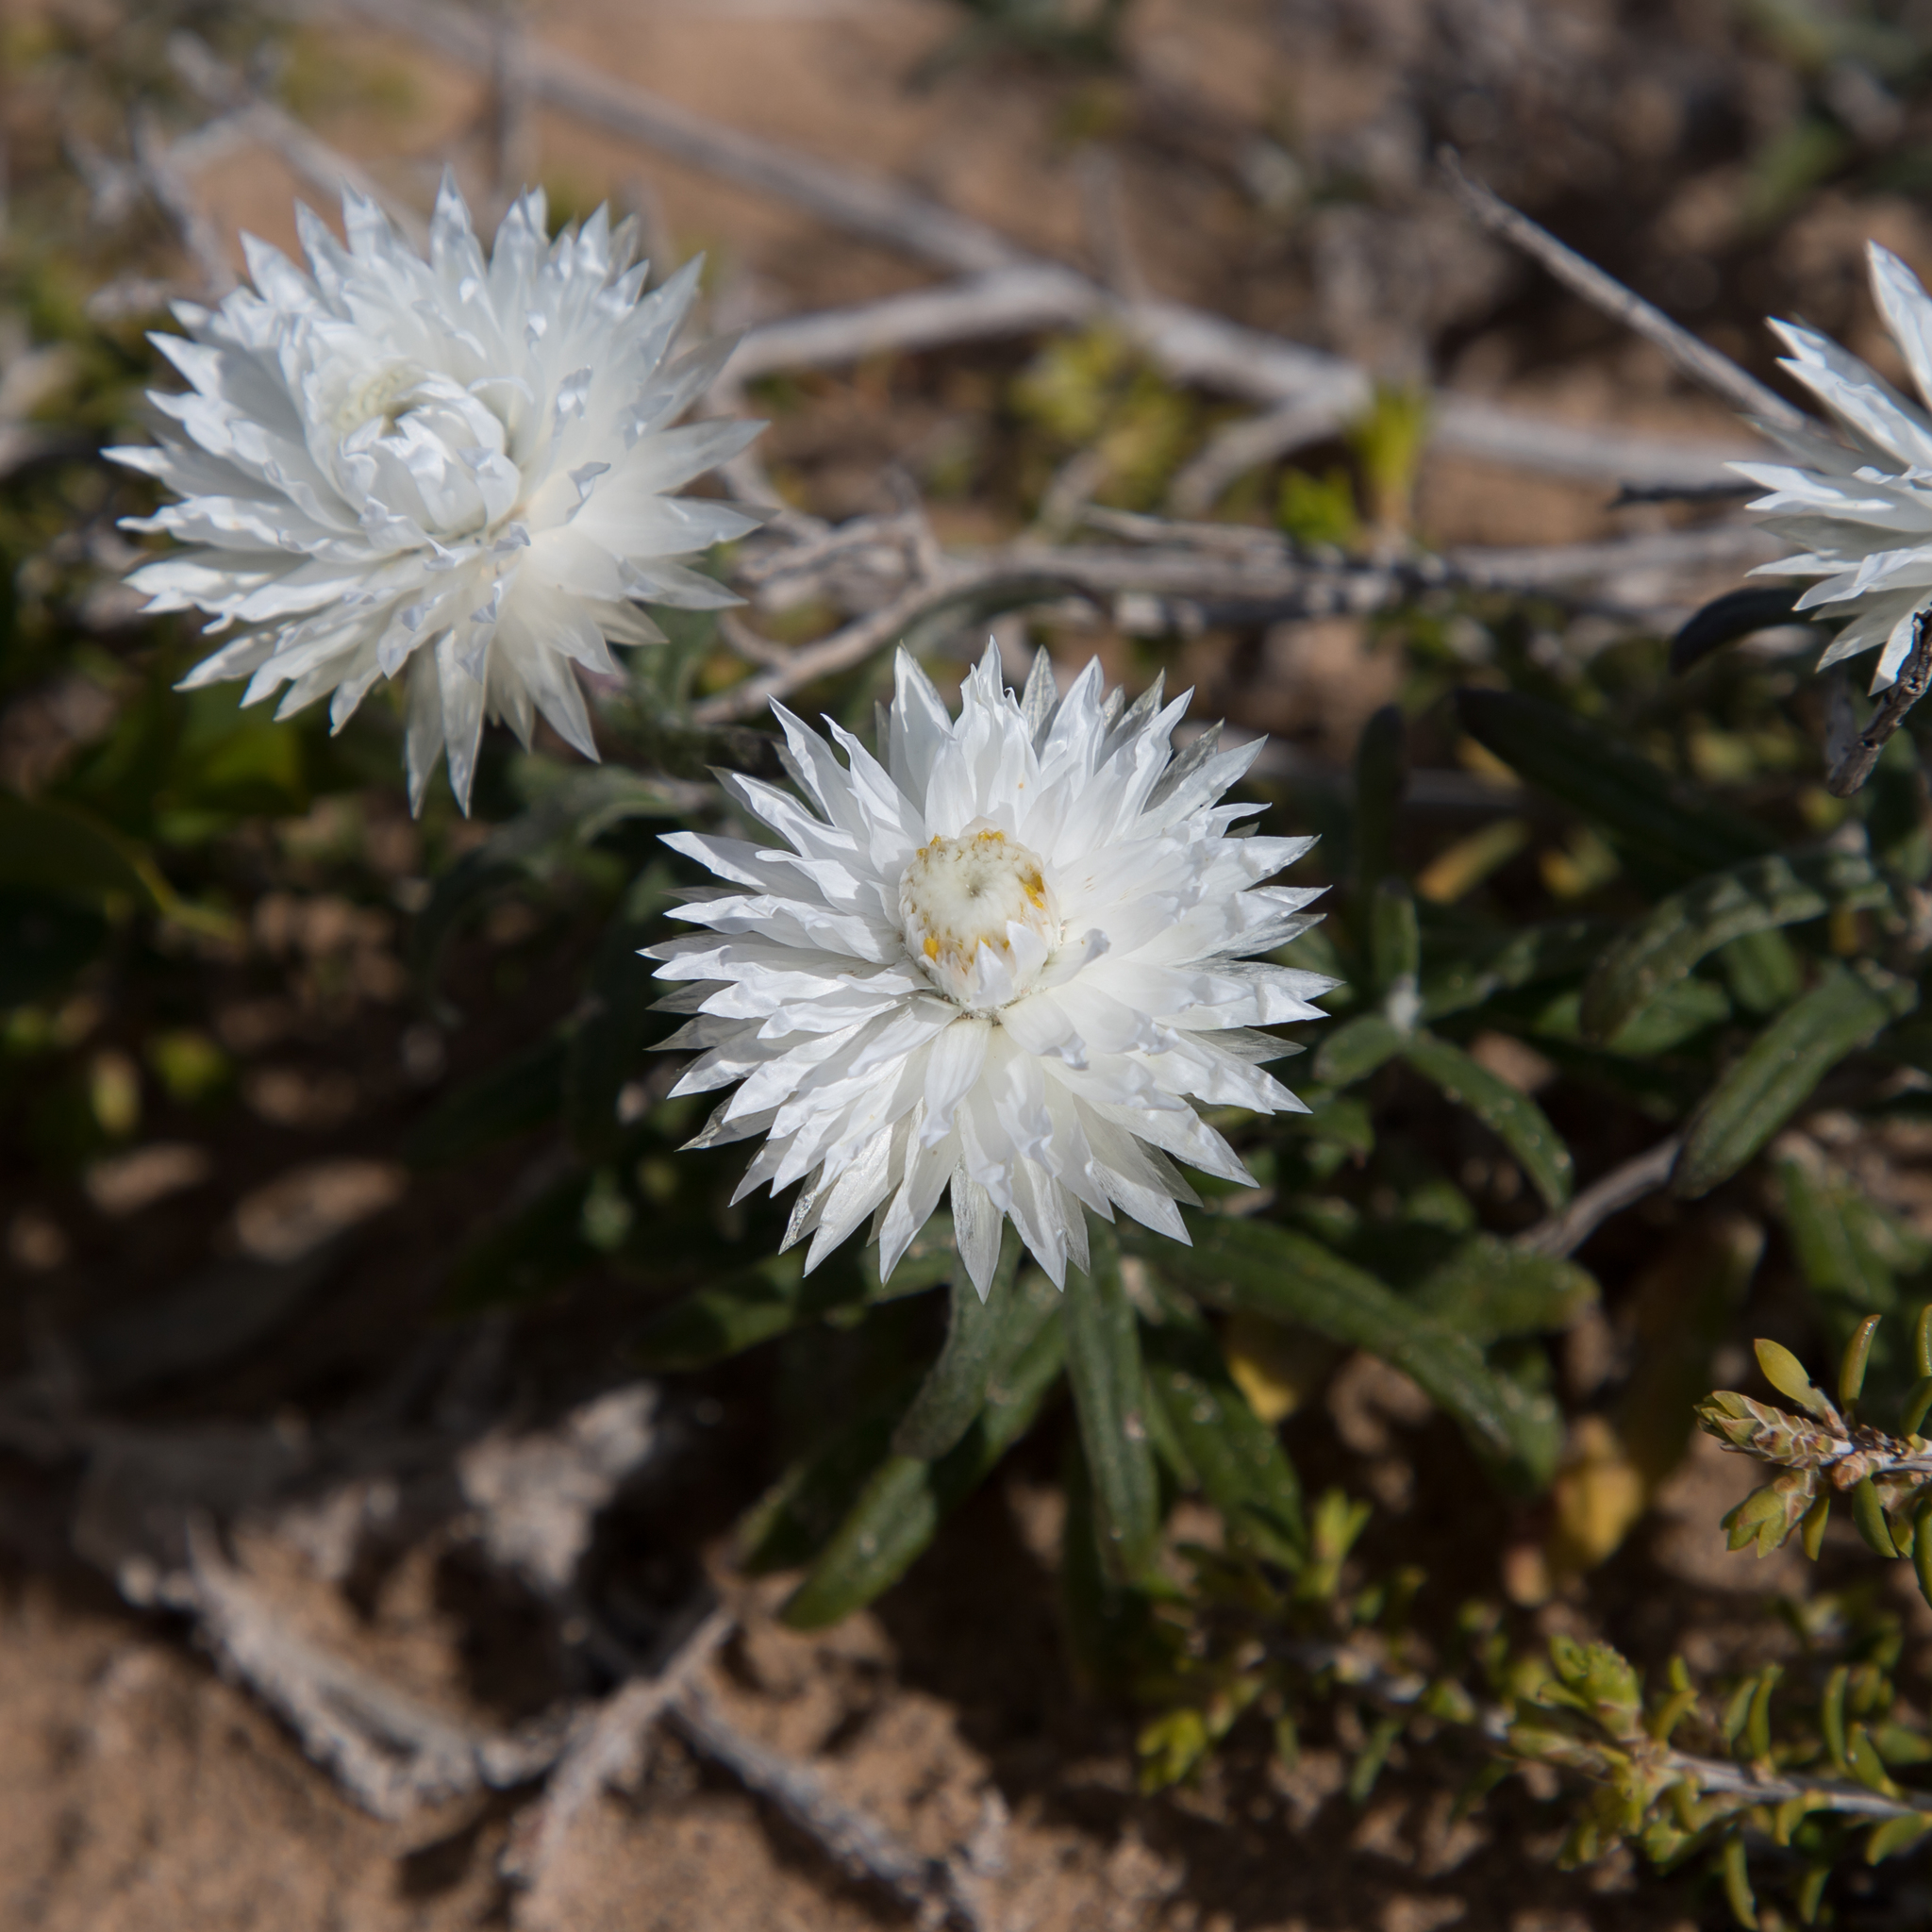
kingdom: Plantae
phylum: Tracheophyta
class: Magnoliopsida
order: Asterales
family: Asteraceae
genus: Helichrysum
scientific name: Helichrysum leucopsideum
